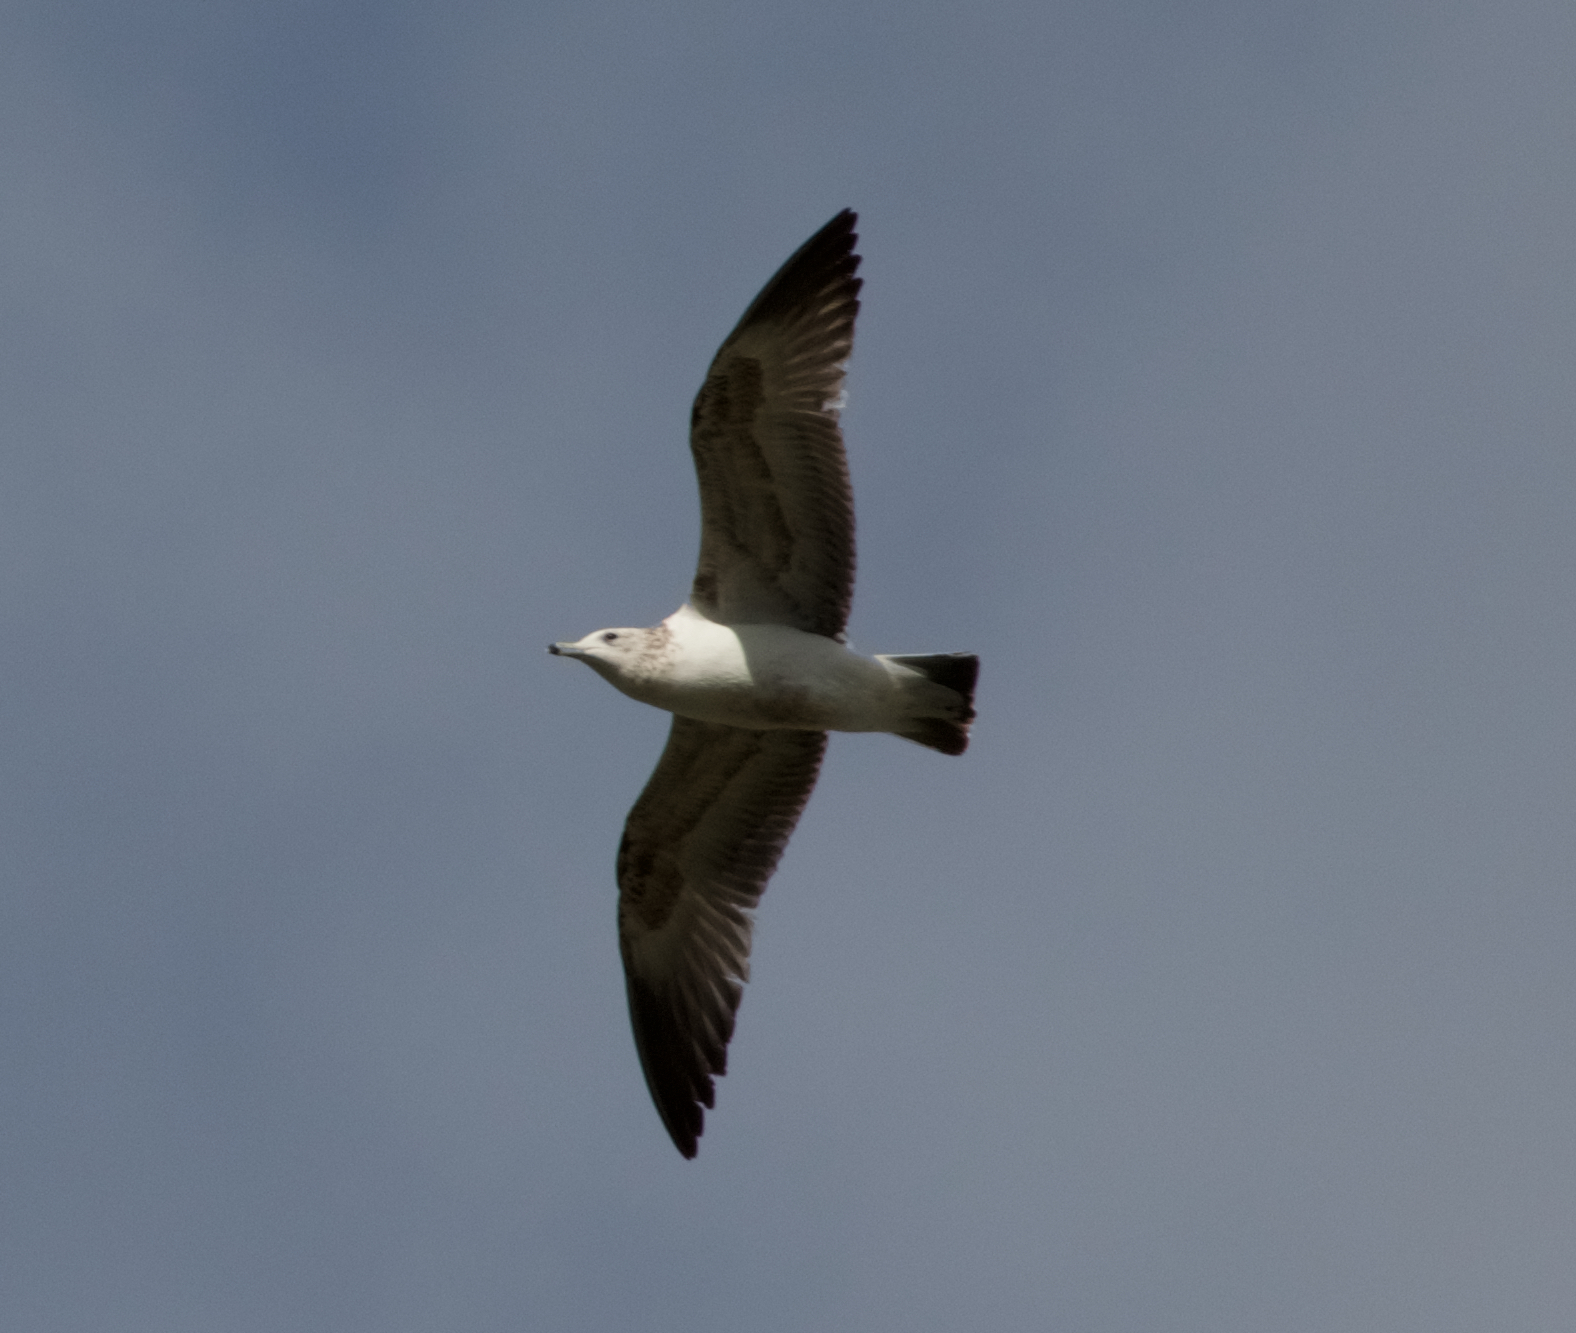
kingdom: Animalia
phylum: Chordata
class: Aves
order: Charadriiformes
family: Laridae
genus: Larus
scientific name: Larus californicus
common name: California gull
